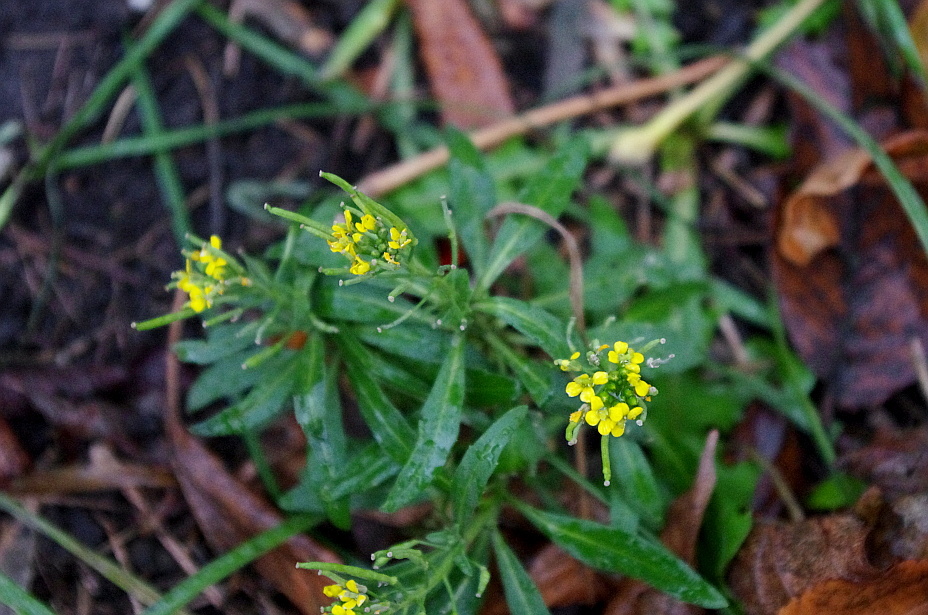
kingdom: Plantae
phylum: Tracheophyta
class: Magnoliopsida
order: Brassicales
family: Brassicaceae
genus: Erysimum
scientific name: Erysimum cheiranthoides
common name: Treacle mustard
